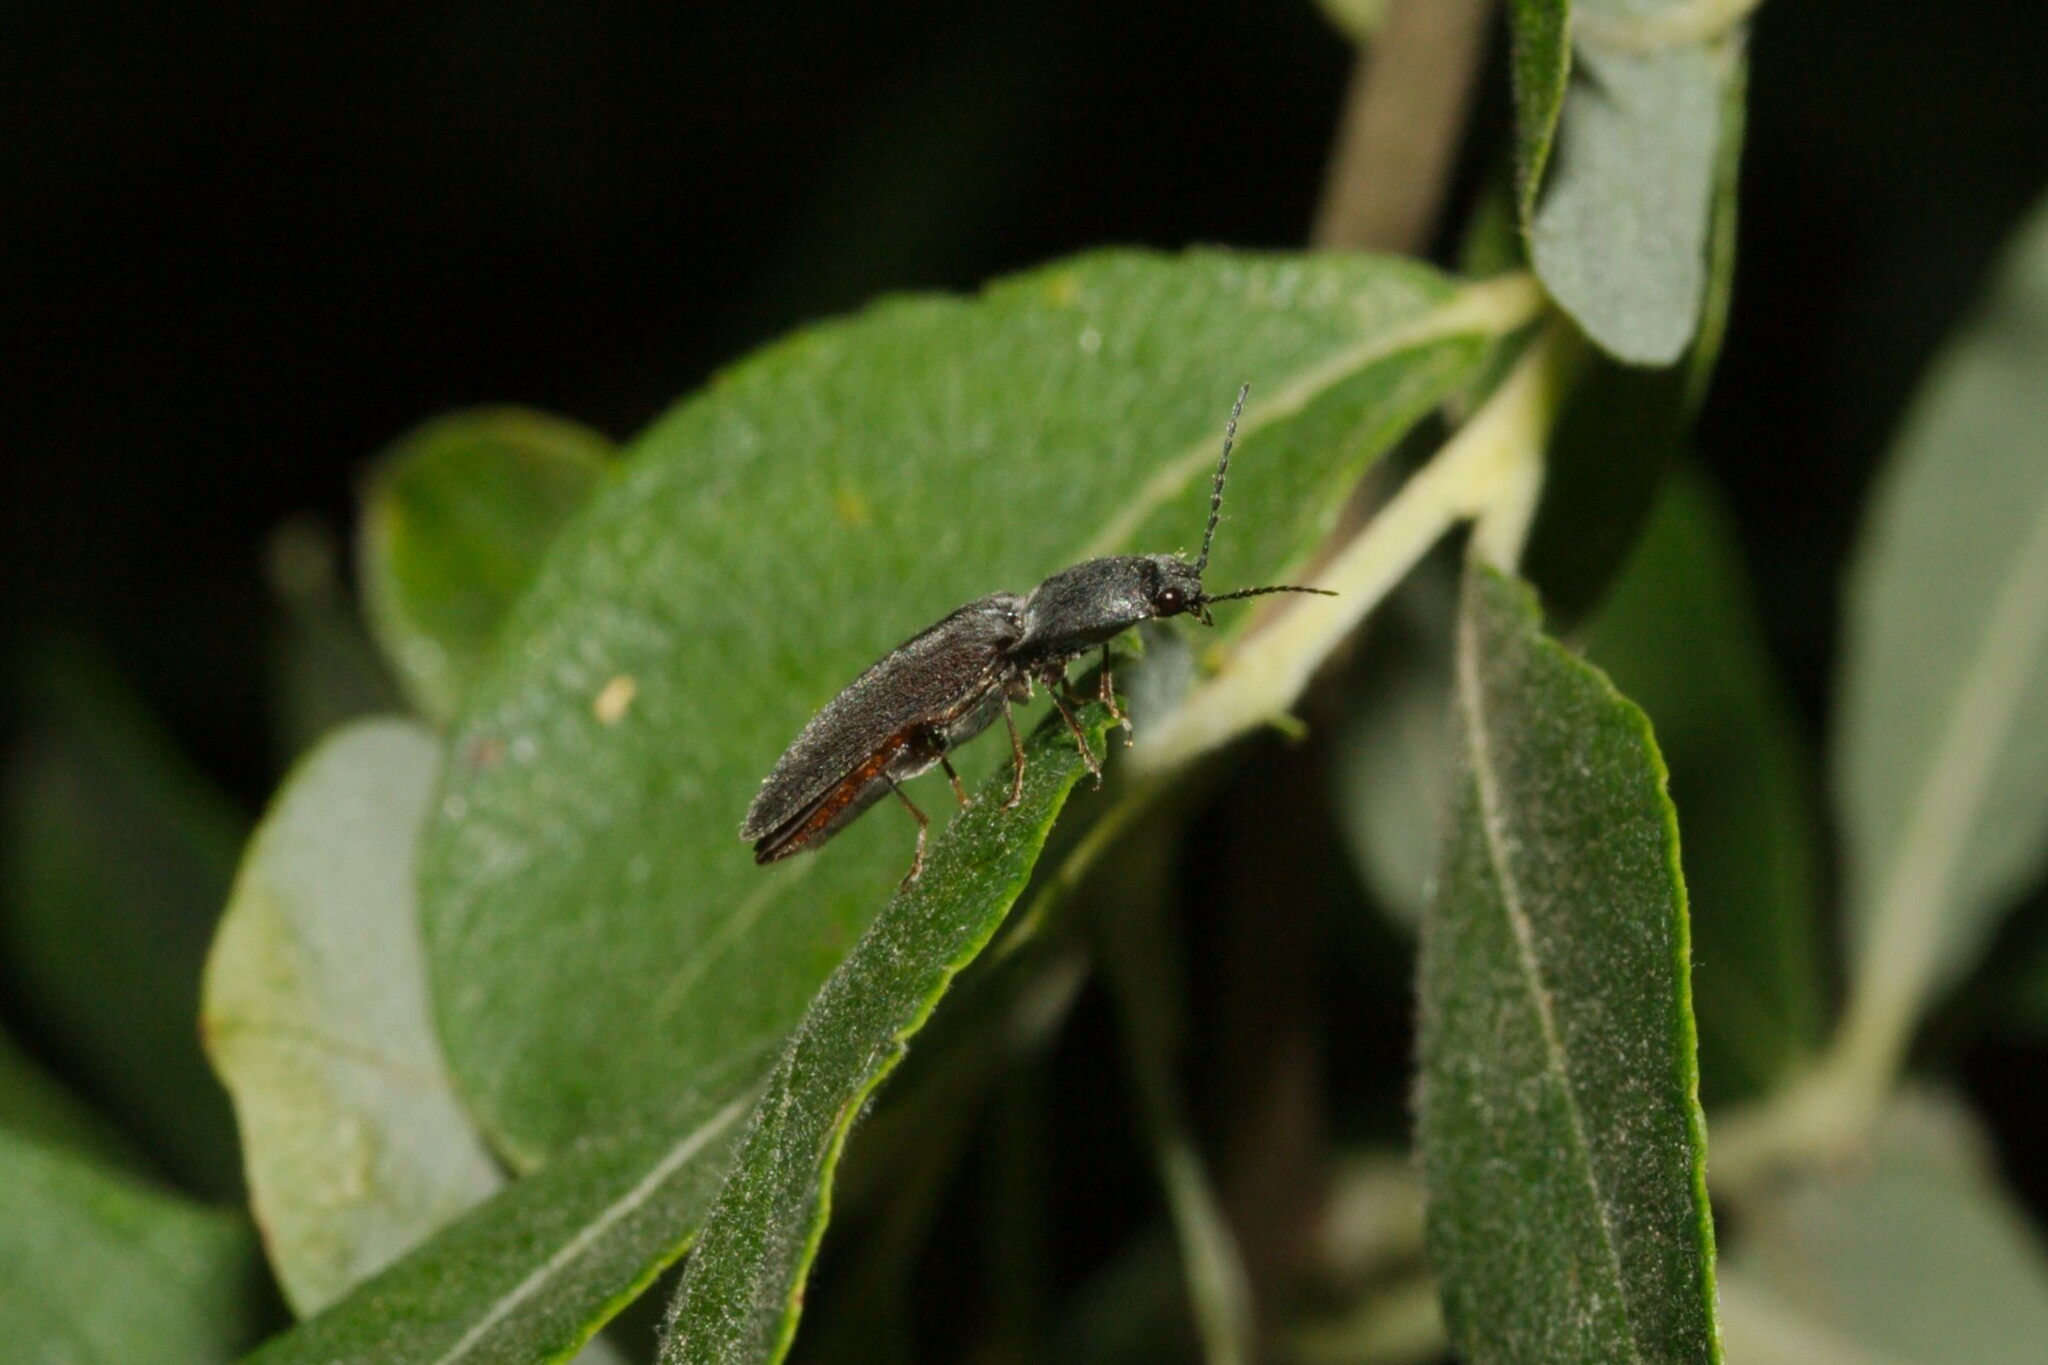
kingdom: Animalia
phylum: Arthropoda
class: Insecta
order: Coleoptera
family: Elateridae
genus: Athous
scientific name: Athous haemorrhoidalis
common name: Red-brown click beetle
